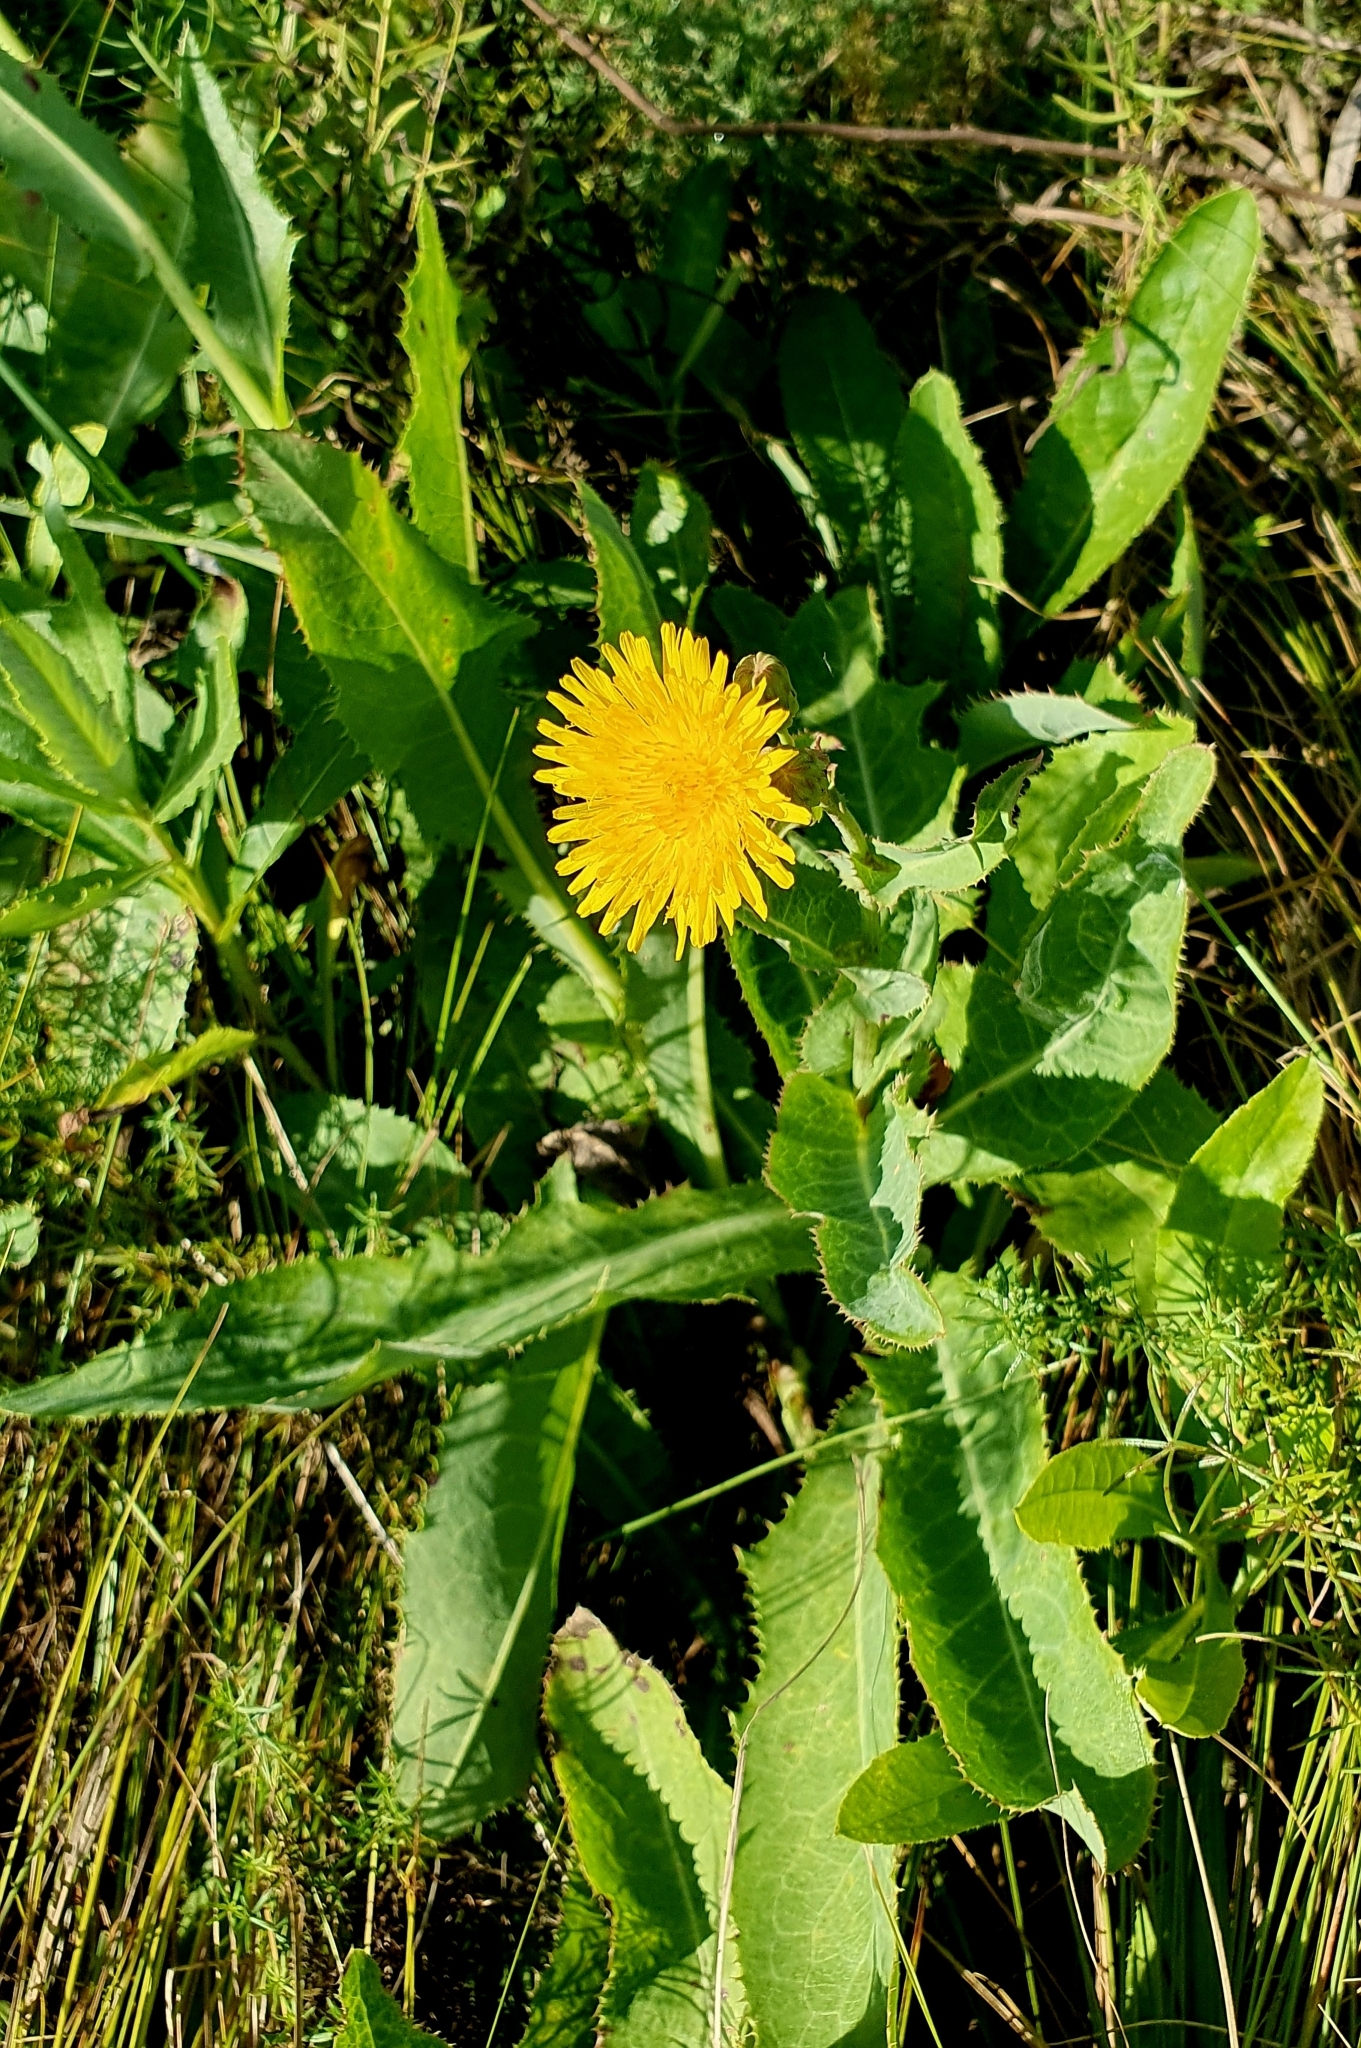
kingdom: Plantae
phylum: Tracheophyta
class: Magnoliopsida
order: Asterales
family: Asteraceae
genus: Sonchus
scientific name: Sonchus arvensis
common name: Perennial sow-thistle
